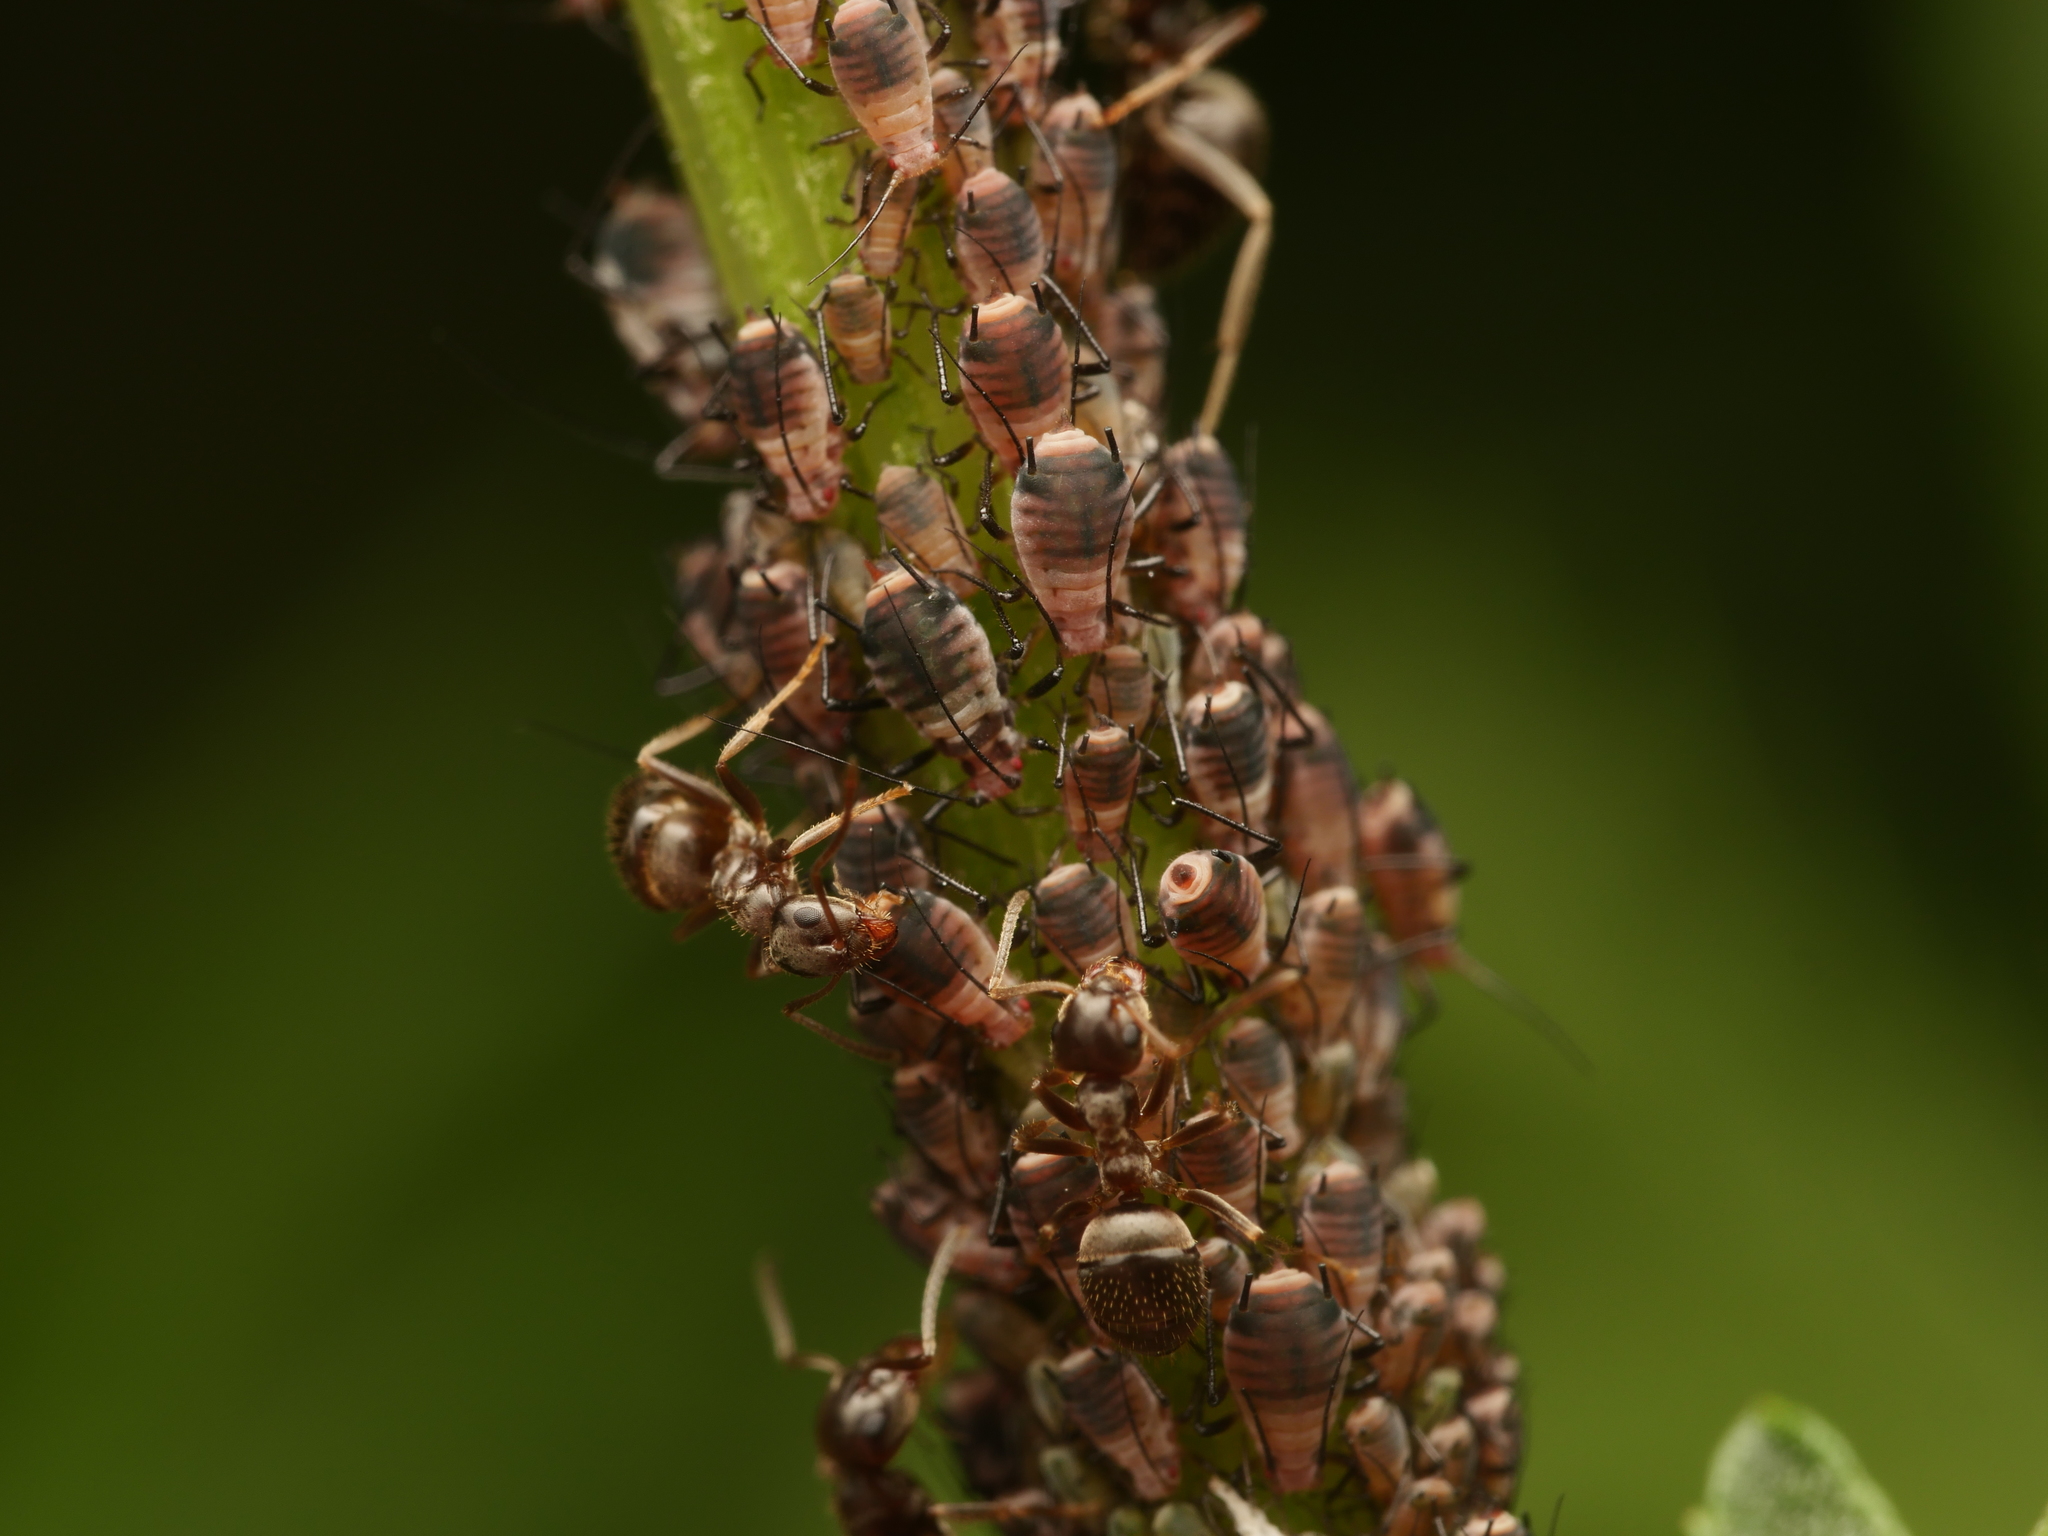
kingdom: Animalia
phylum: Arthropoda
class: Insecta
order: Hemiptera
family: Aphididae
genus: Metopeurum
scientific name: Metopeurum fuscoviride
